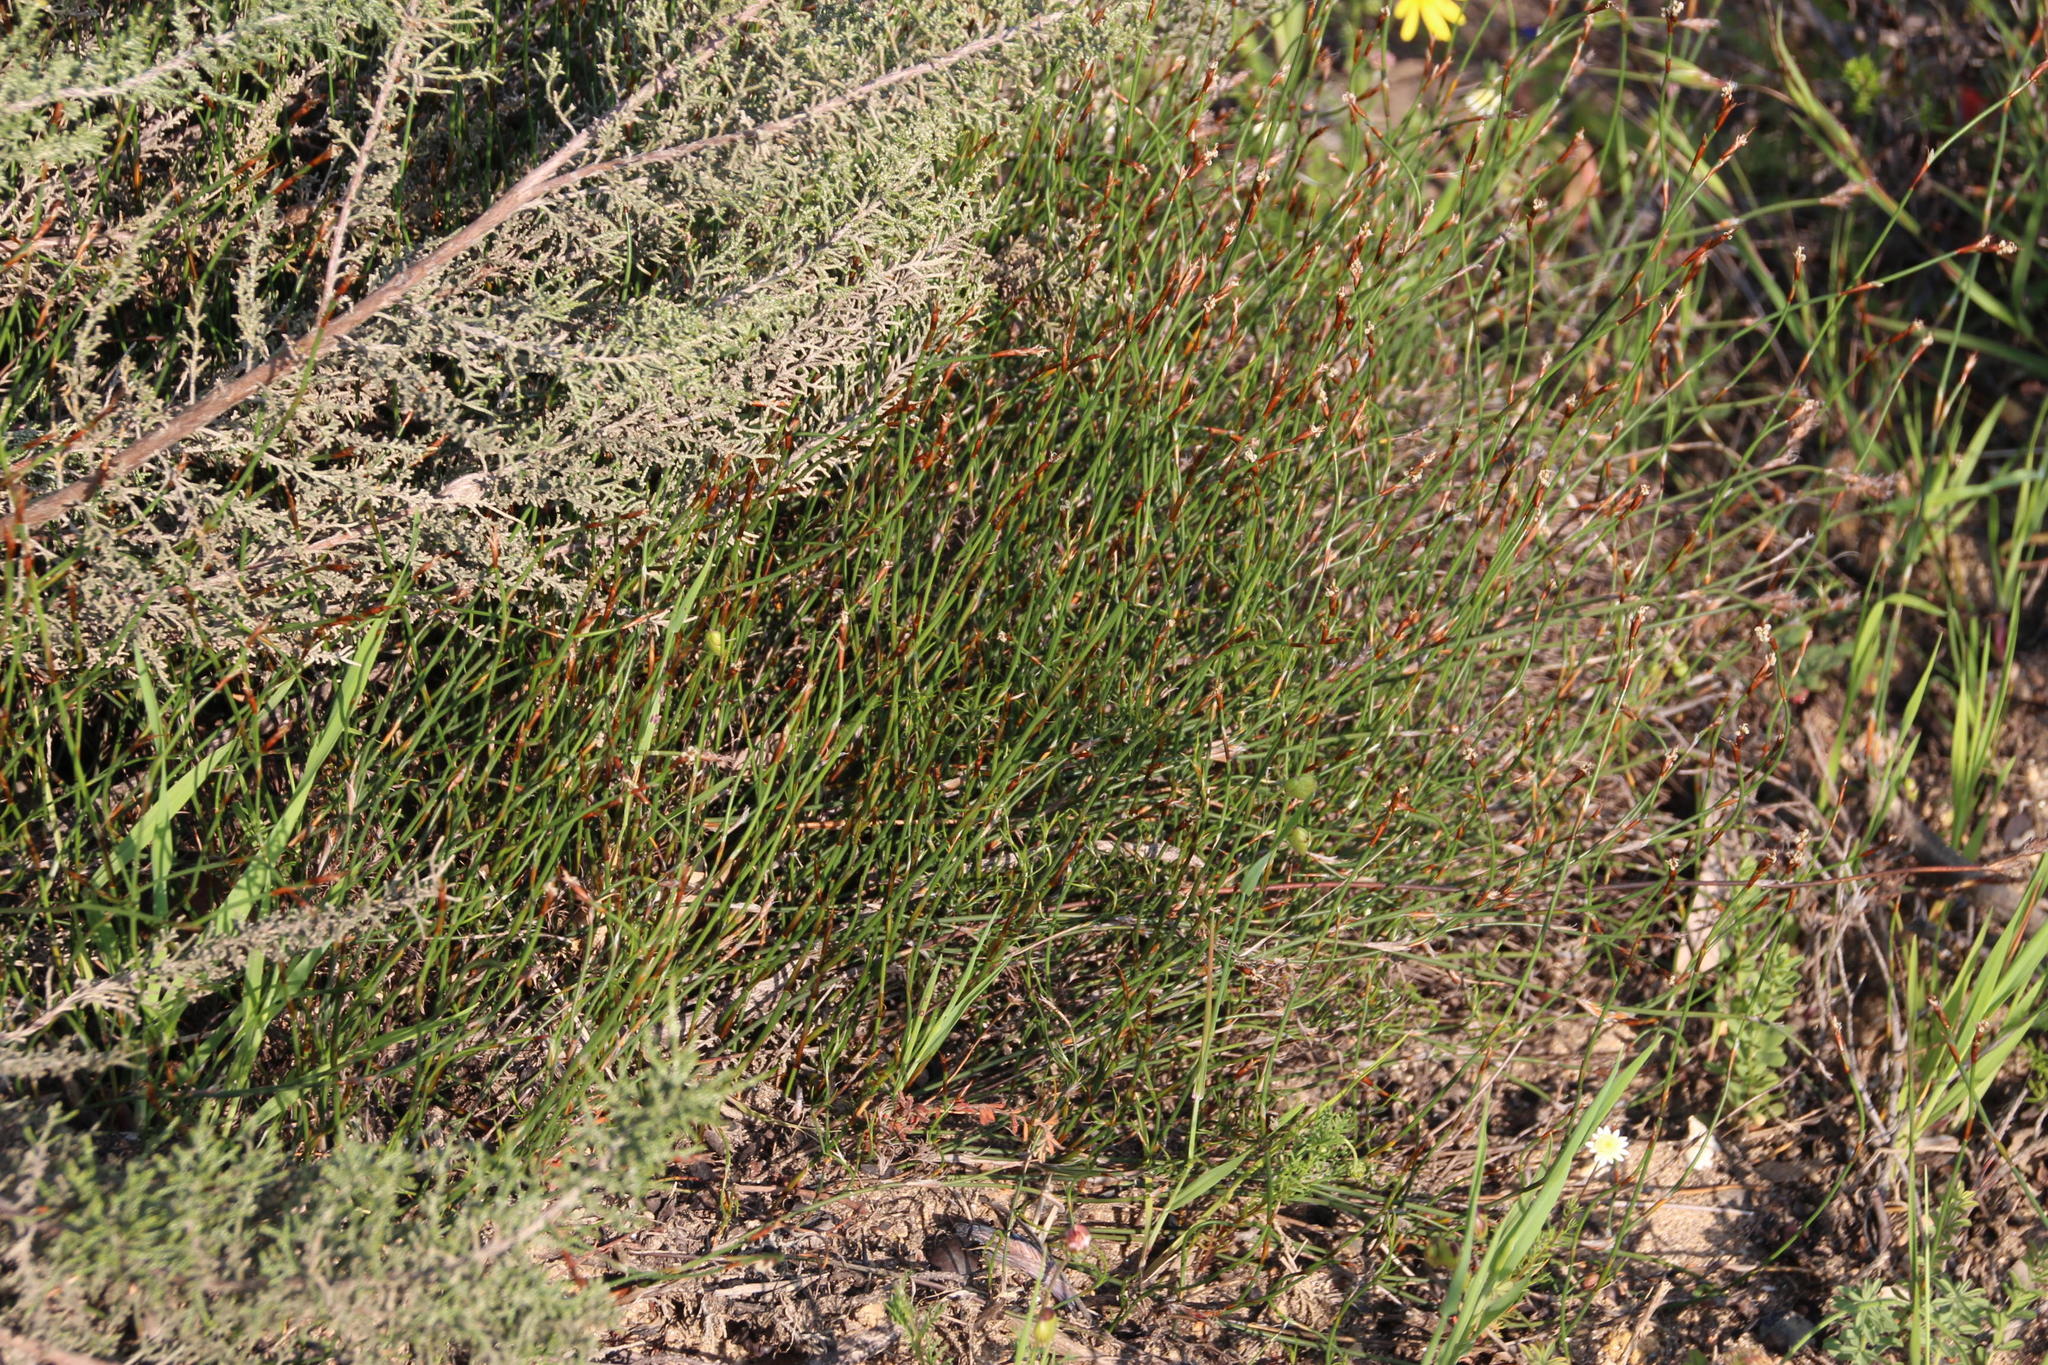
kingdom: Plantae
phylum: Tracheophyta
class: Liliopsida
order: Poales
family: Restionaceae
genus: Restio
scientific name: Restio capensis
